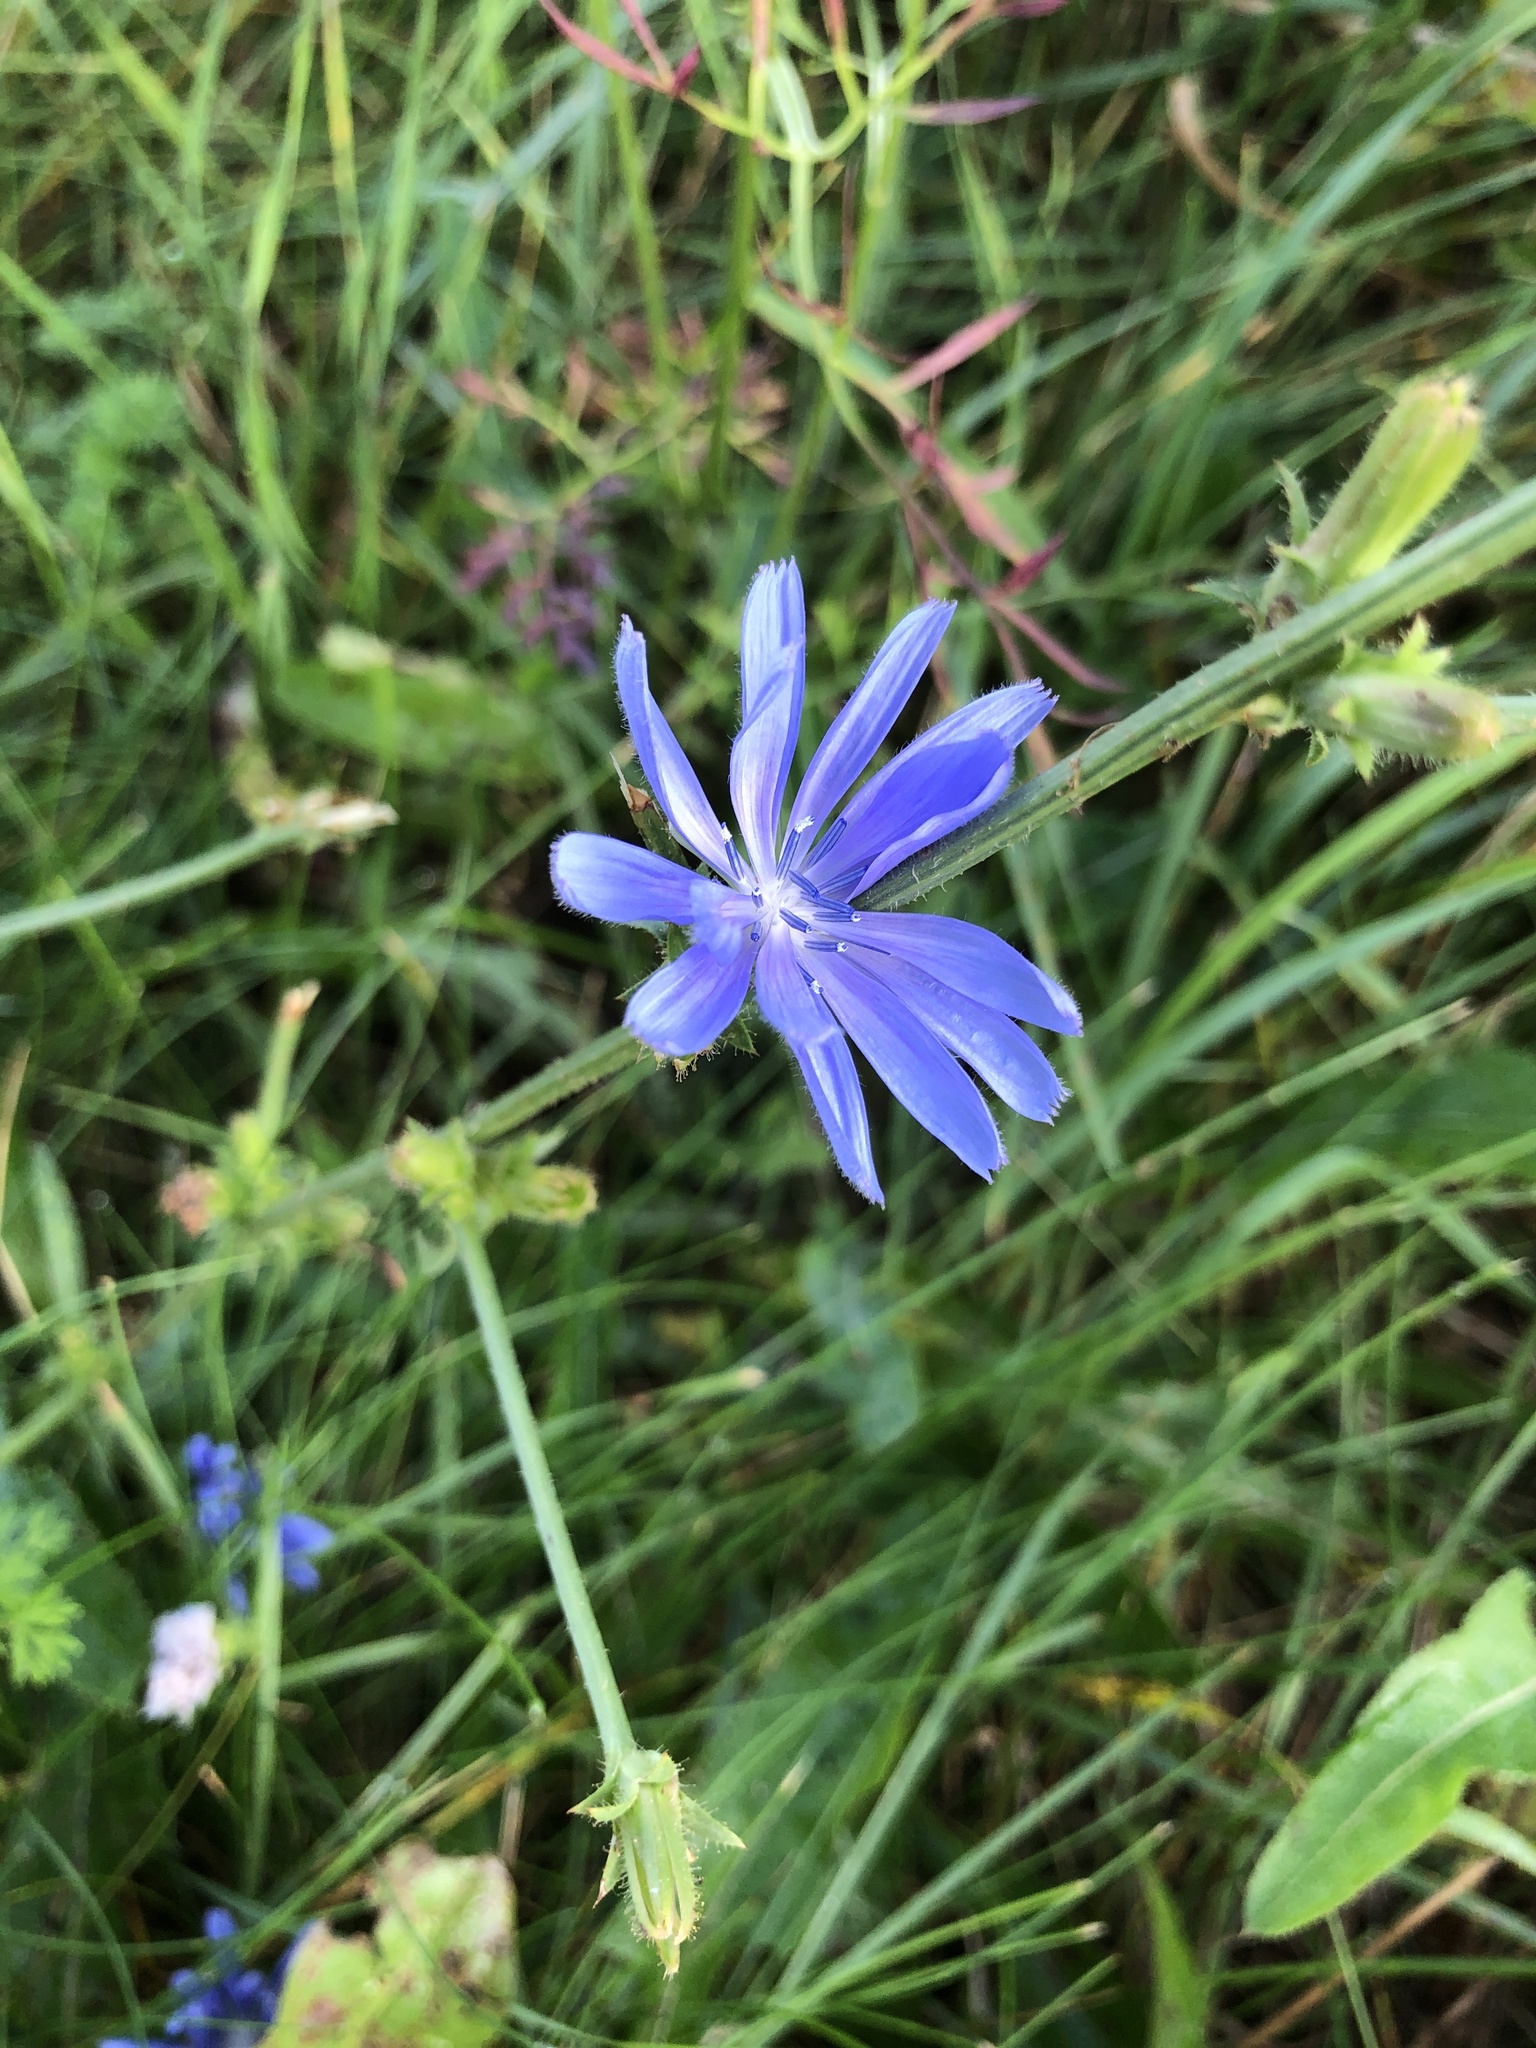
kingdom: Plantae
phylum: Tracheophyta
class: Magnoliopsida
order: Asterales
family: Asteraceae
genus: Cichorium
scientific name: Cichorium intybus
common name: Chicory
